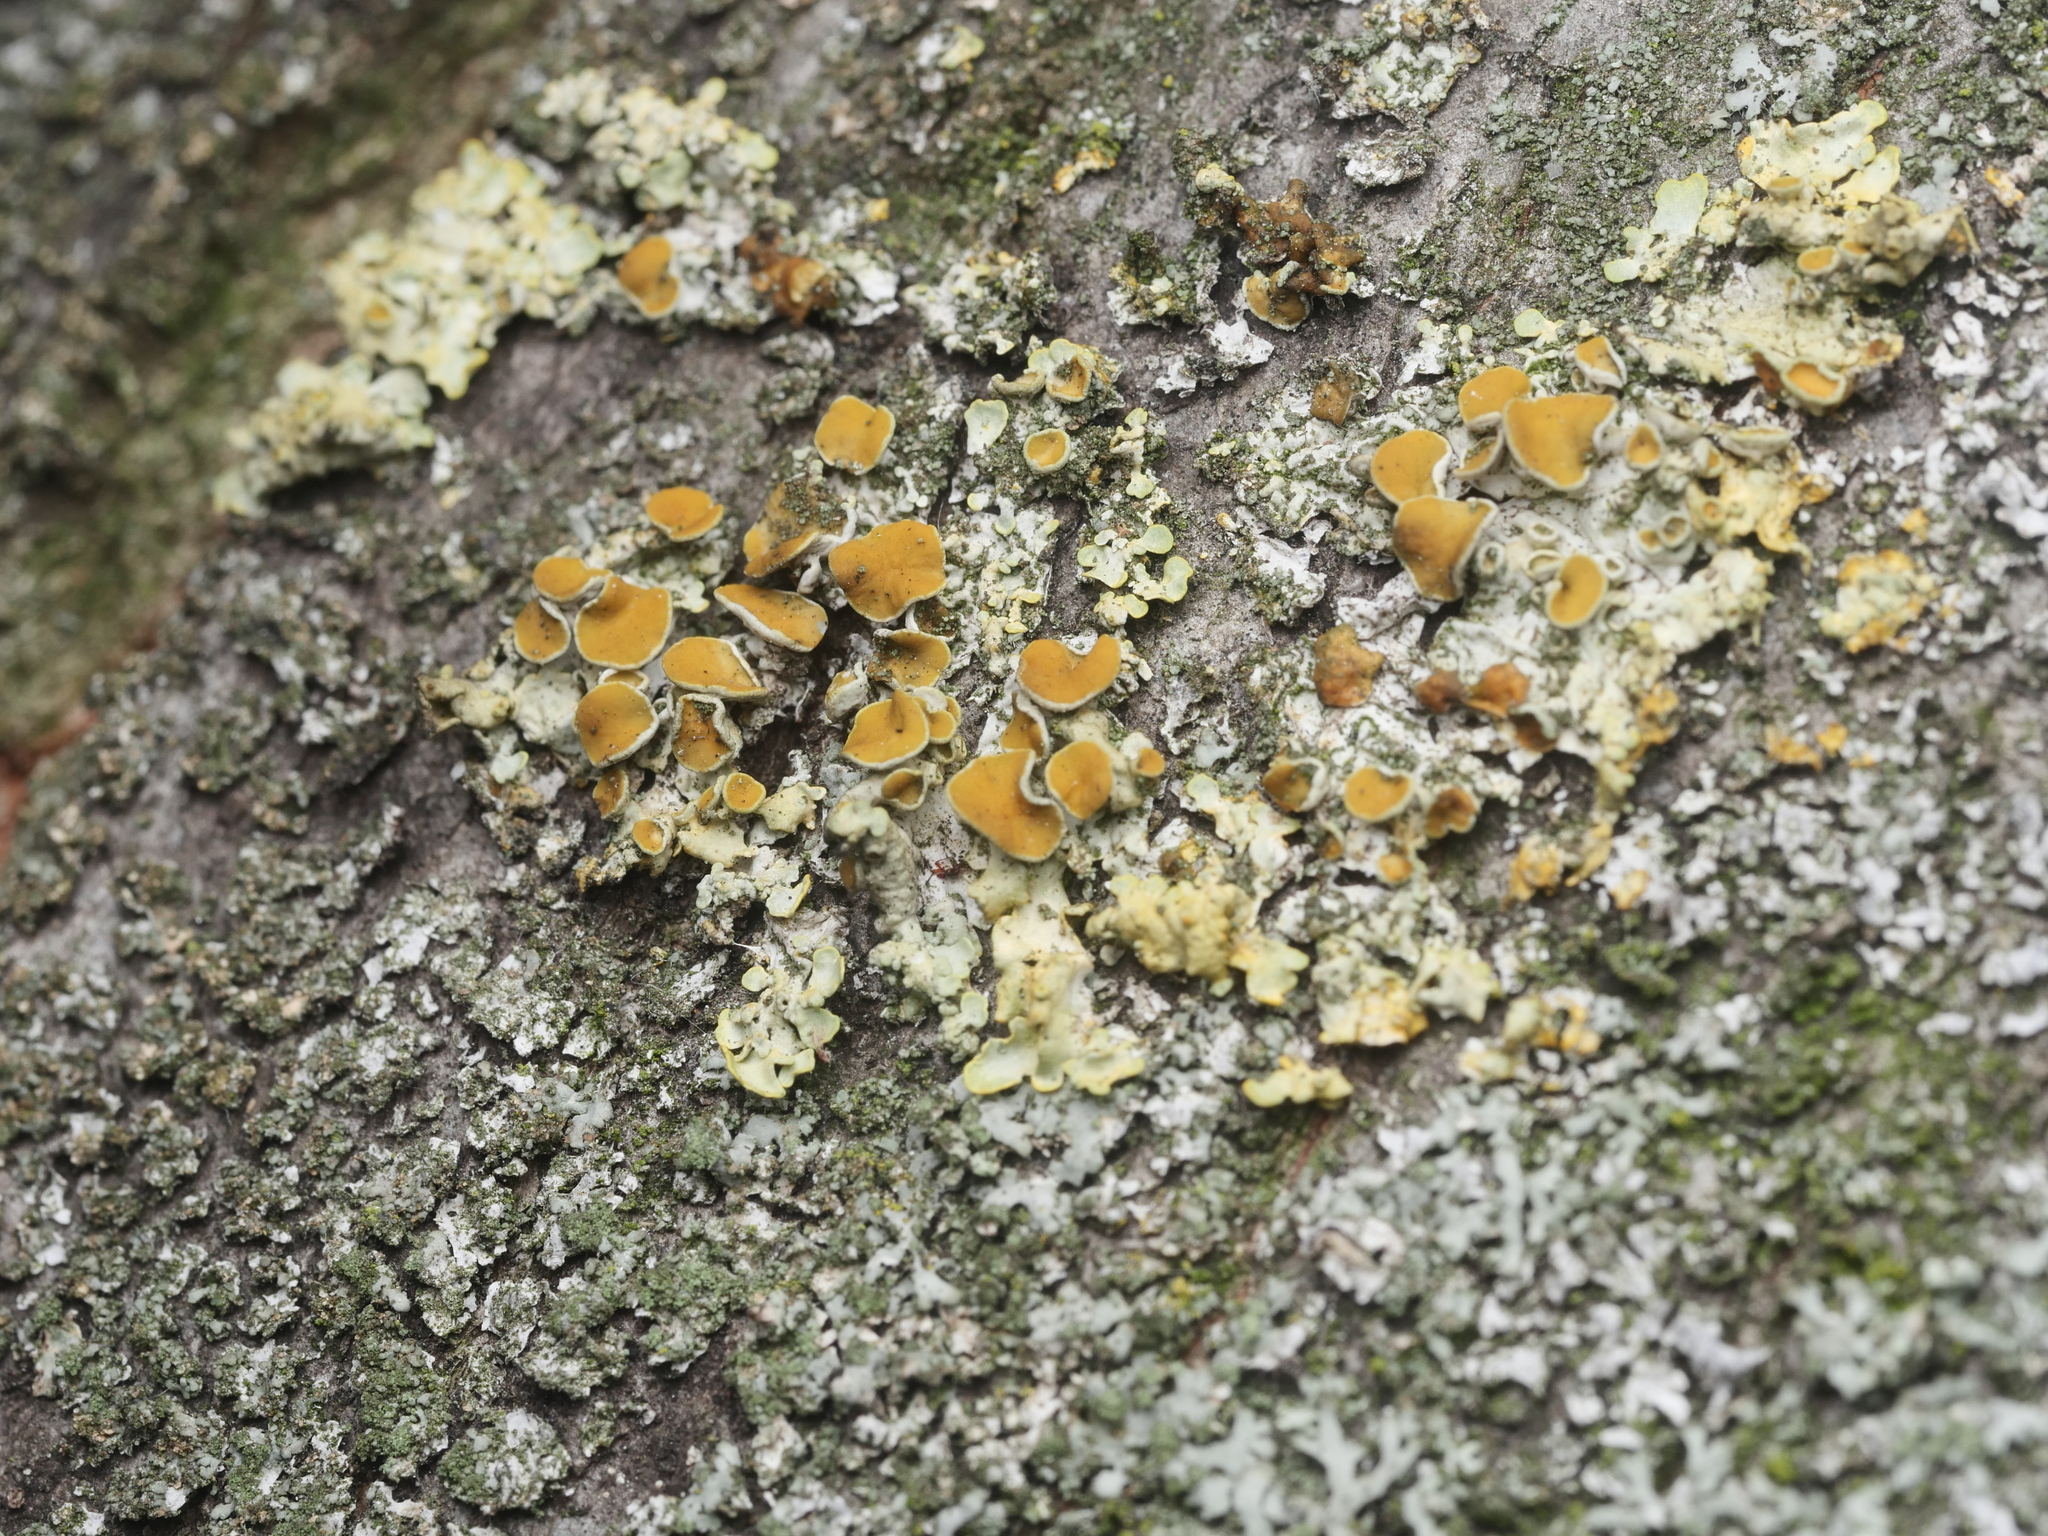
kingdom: Fungi
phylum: Ascomycota
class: Lecanoromycetes
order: Teloschistales
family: Teloschistaceae
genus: Xanthoria
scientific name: Xanthoria parietina
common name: Common orange lichen
